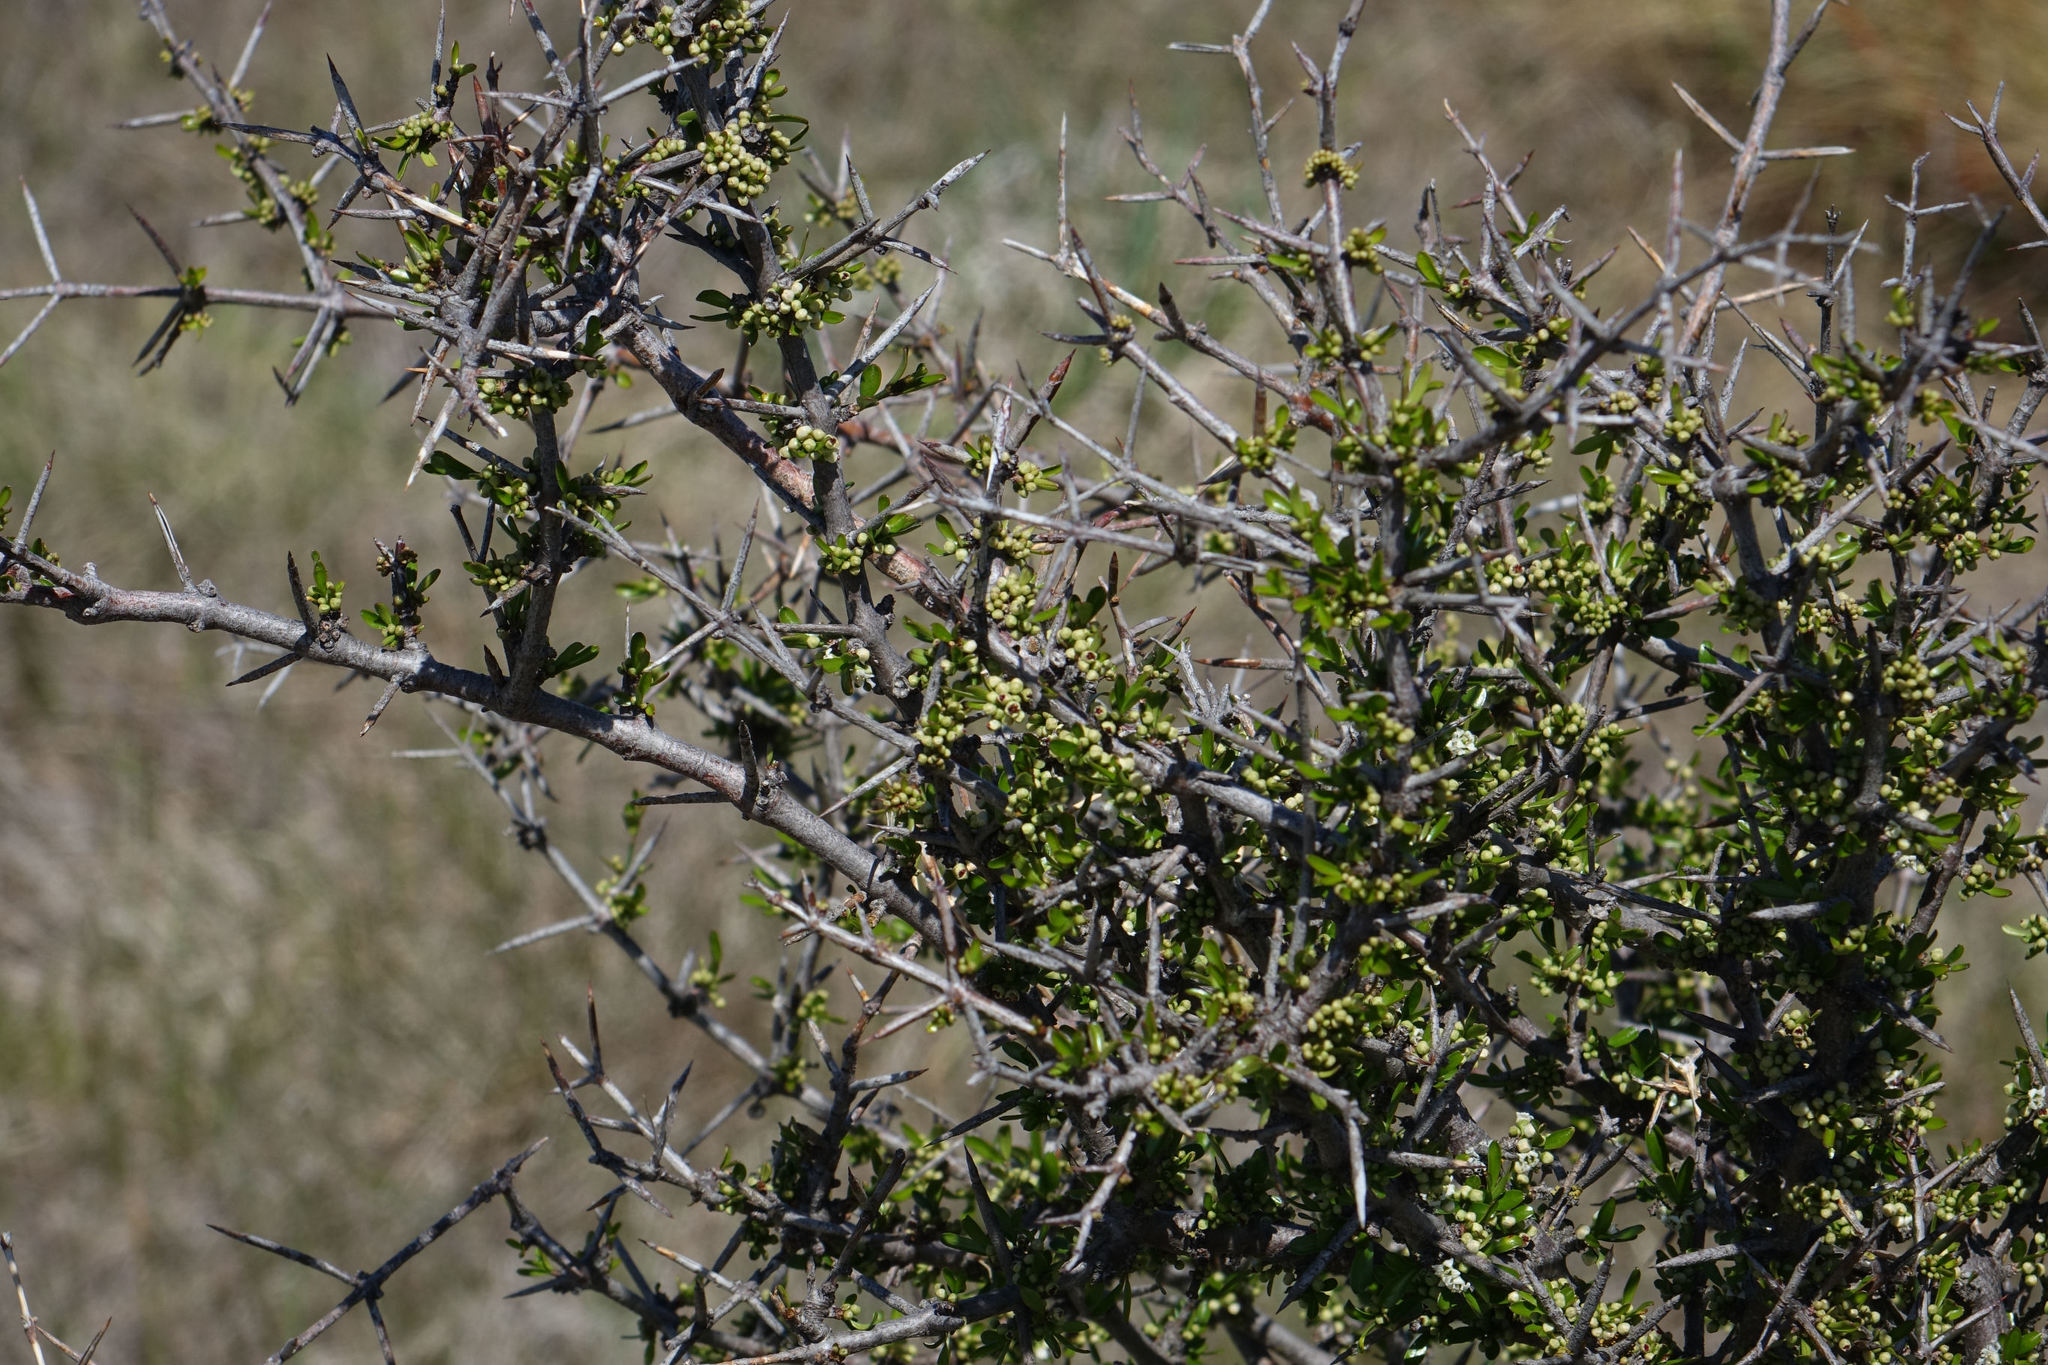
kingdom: Plantae
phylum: Tracheophyta
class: Magnoliopsida
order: Rosales
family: Rhamnaceae
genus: Discaria
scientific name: Discaria toumatou
